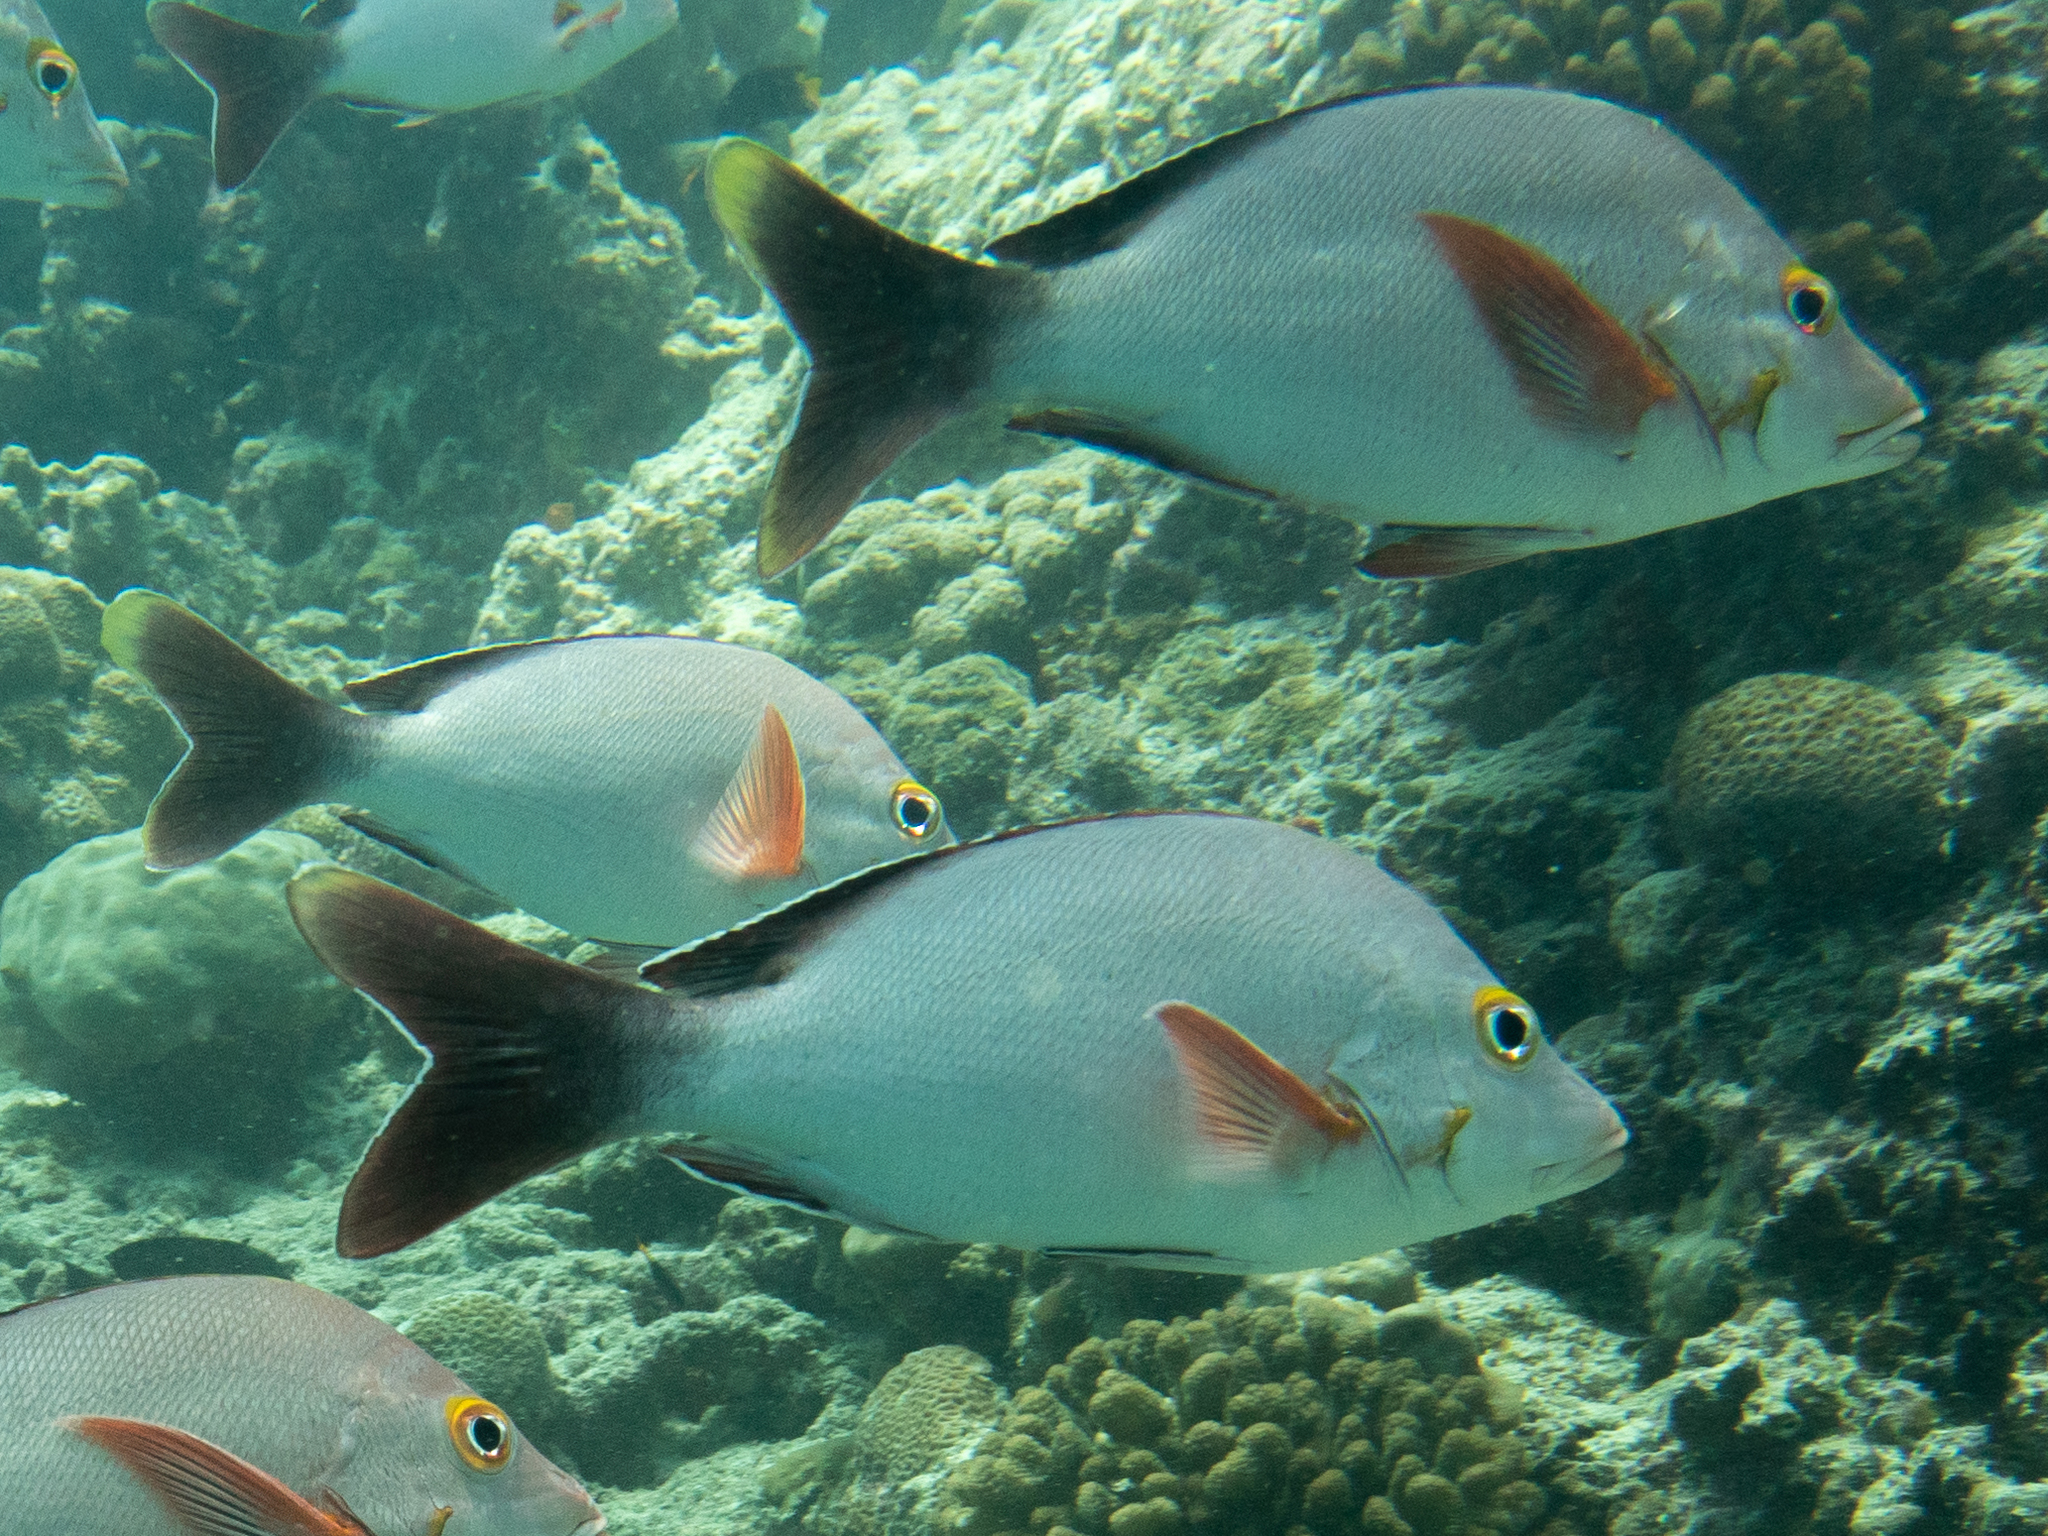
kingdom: Animalia
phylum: Chordata
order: Perciformes
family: Lutjanidae
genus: Lutjanus
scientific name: Lutjanus gibbus
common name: Humpback snapper
